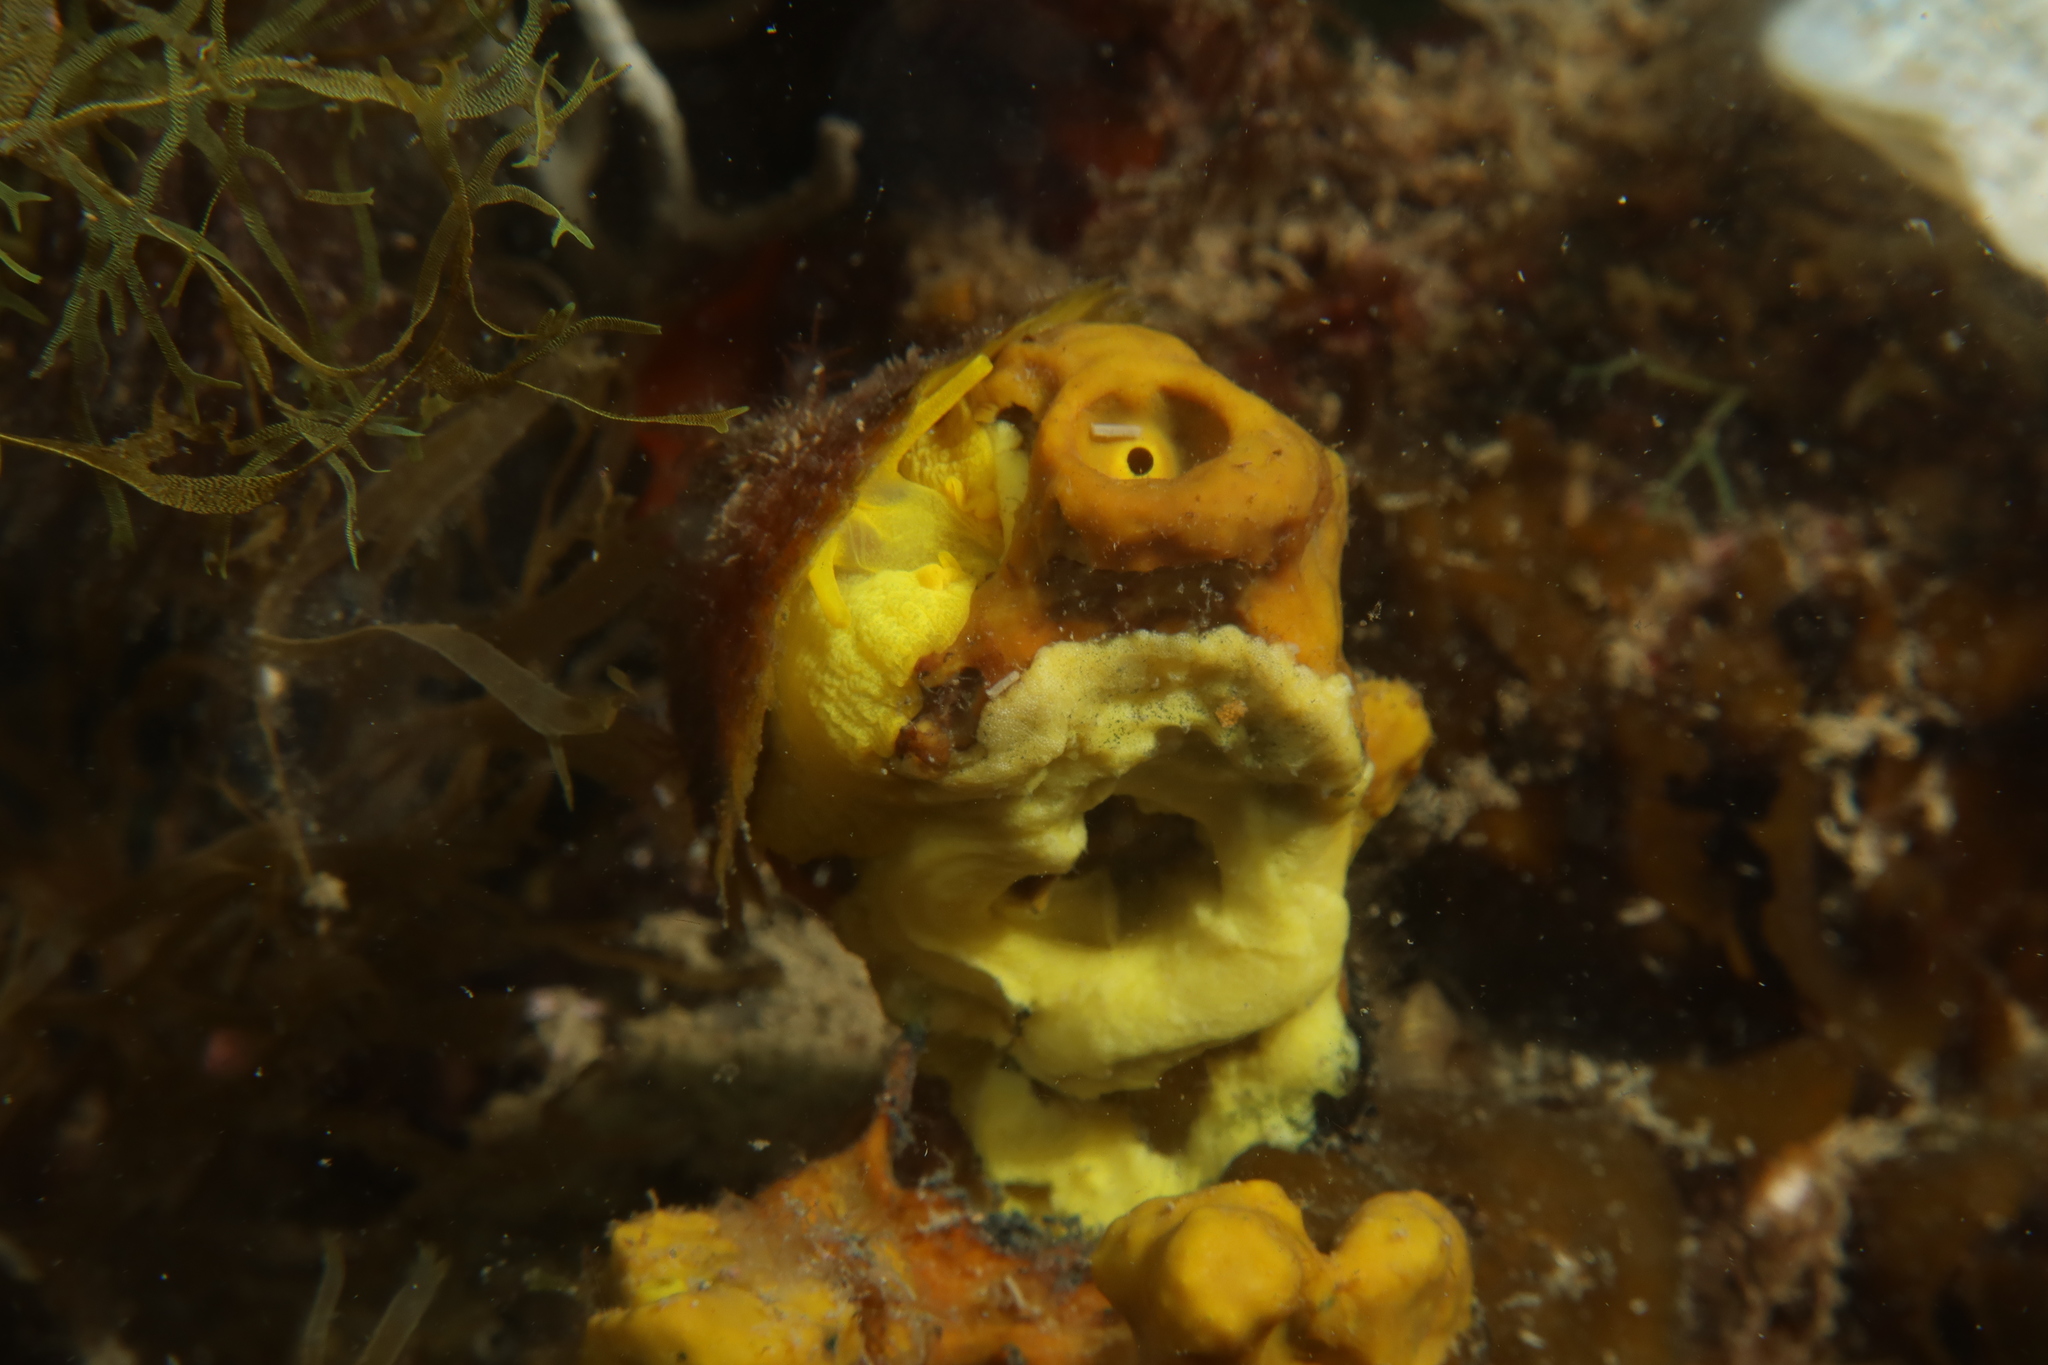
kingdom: Animalia
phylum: Mollusca
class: Gastropoda
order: Umbraculida
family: Tylodinidae
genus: Tylodina
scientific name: Tylodina perversa
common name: Yellow tylodina
